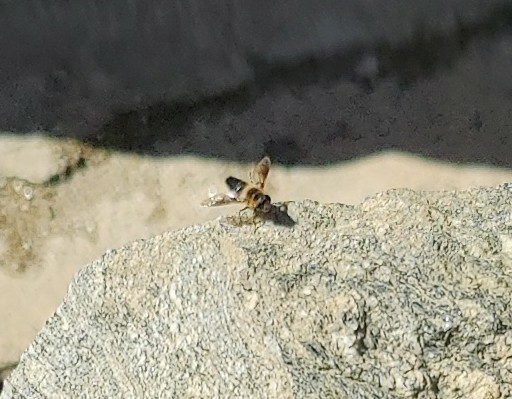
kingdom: Animalia
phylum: Arthropoda
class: Insecta
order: Diptera
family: Syrphidae
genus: Eristalis
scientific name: Eristalis himalayensis
